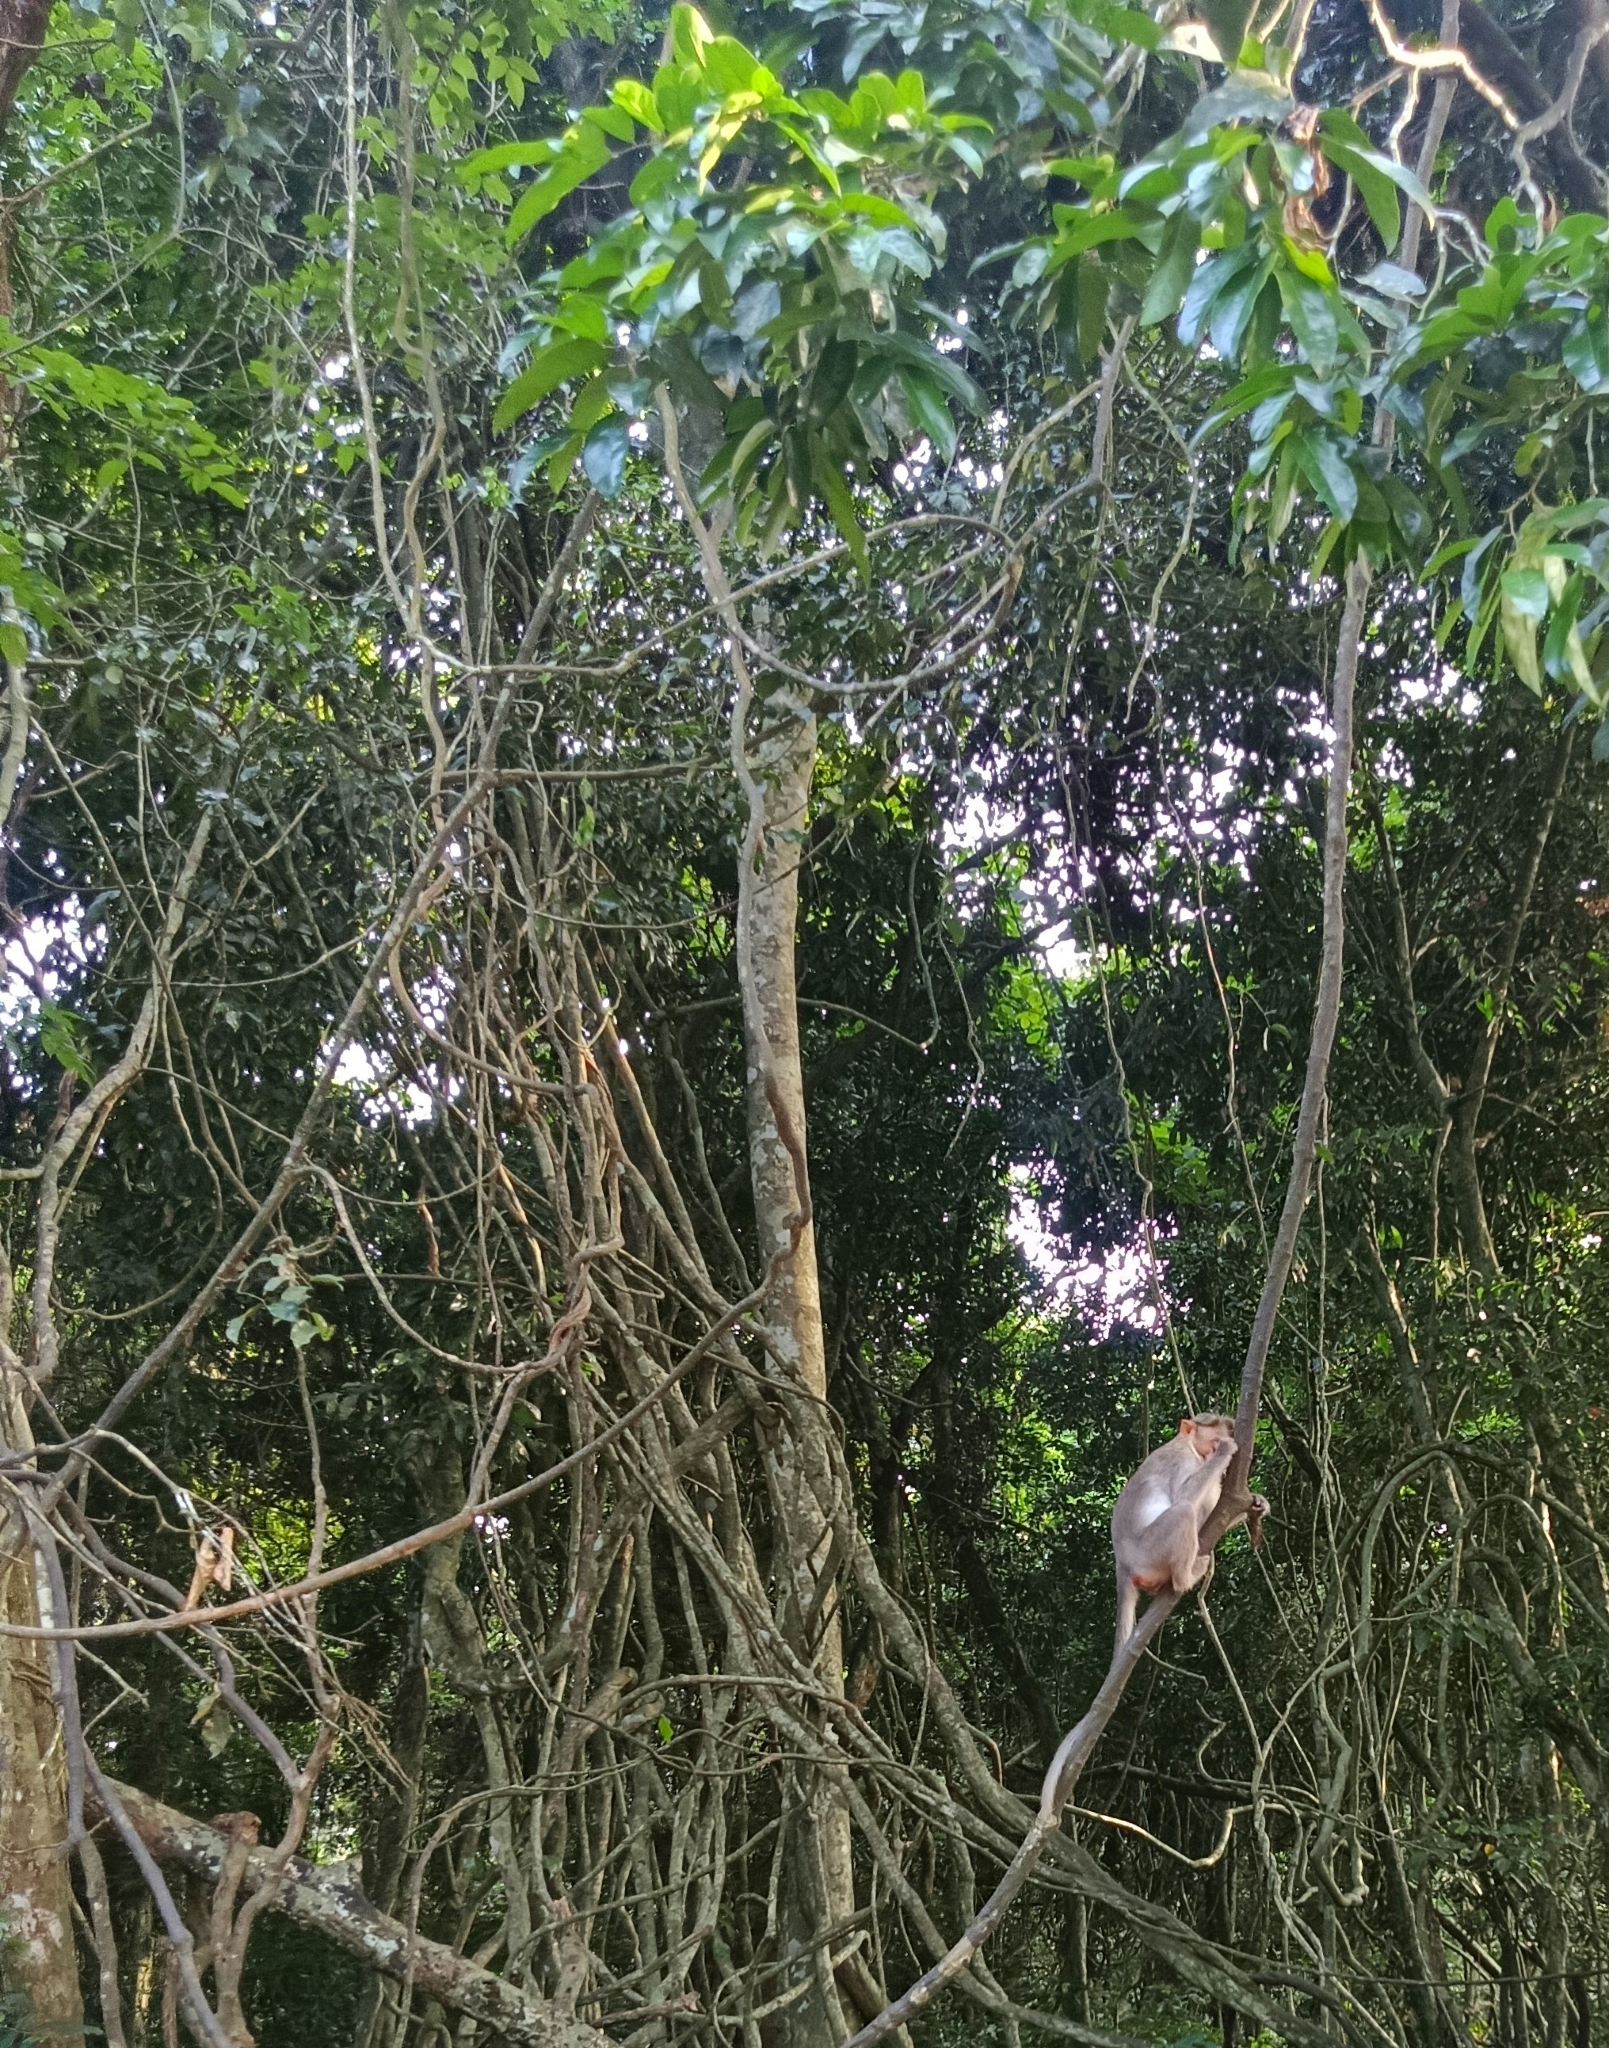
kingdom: Animalia
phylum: Chordata
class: Mammalia
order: Primates
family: Cercopithecidae
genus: Macaca
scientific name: Macaca radiata
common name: Bonnet macaque
